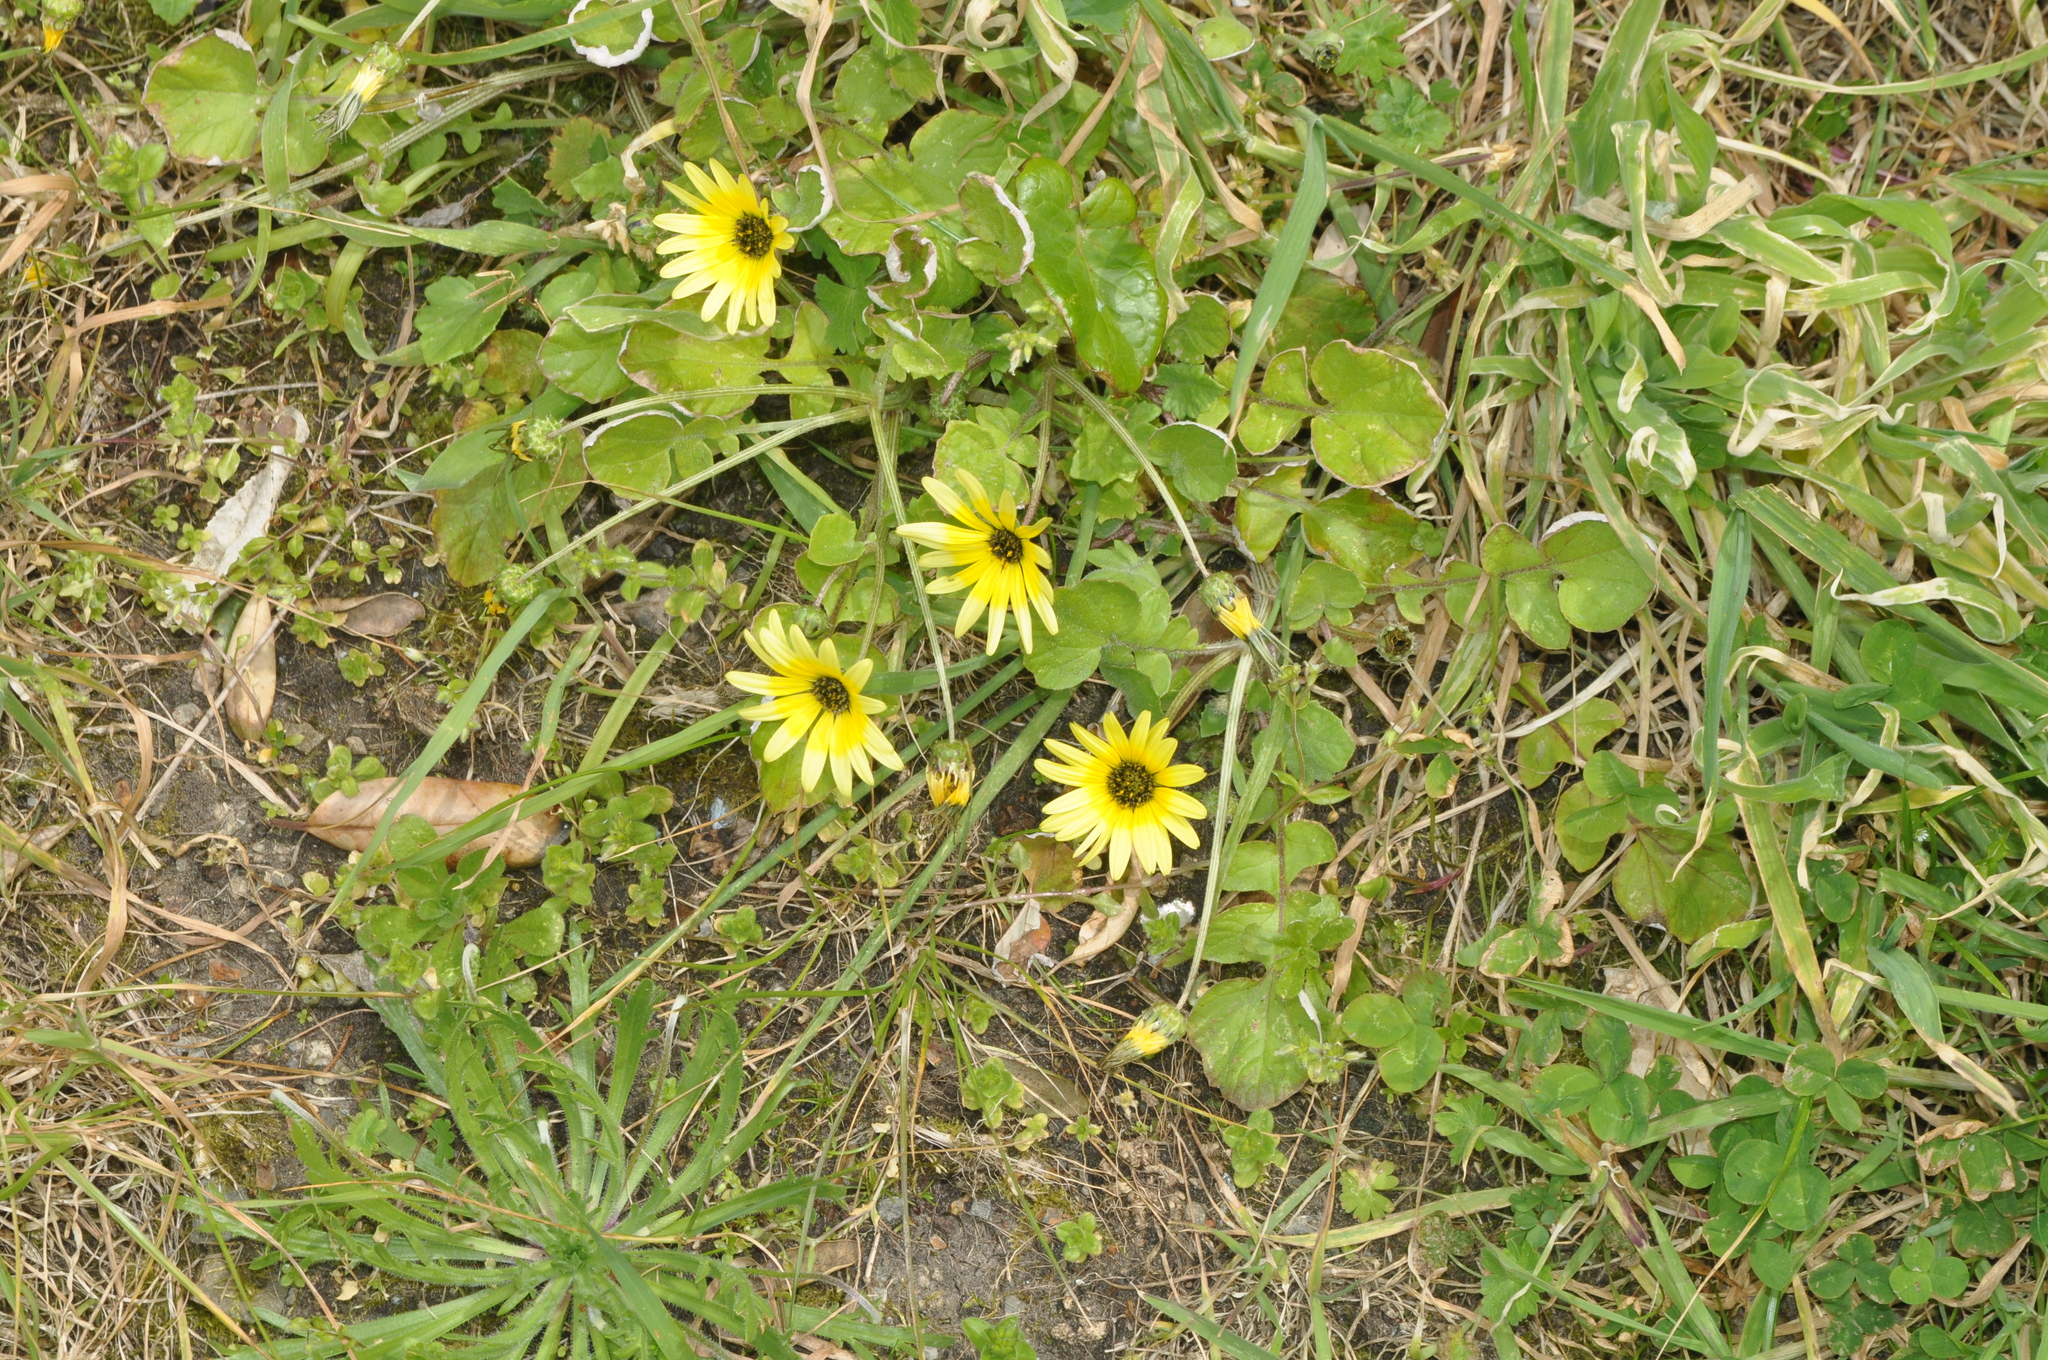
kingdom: Plantae
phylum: Tracheophyta
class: Magnoliopsida
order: Asterales
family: Asteraceae
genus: Arctotheca
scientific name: Arctotheca calendula
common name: Capeweed
